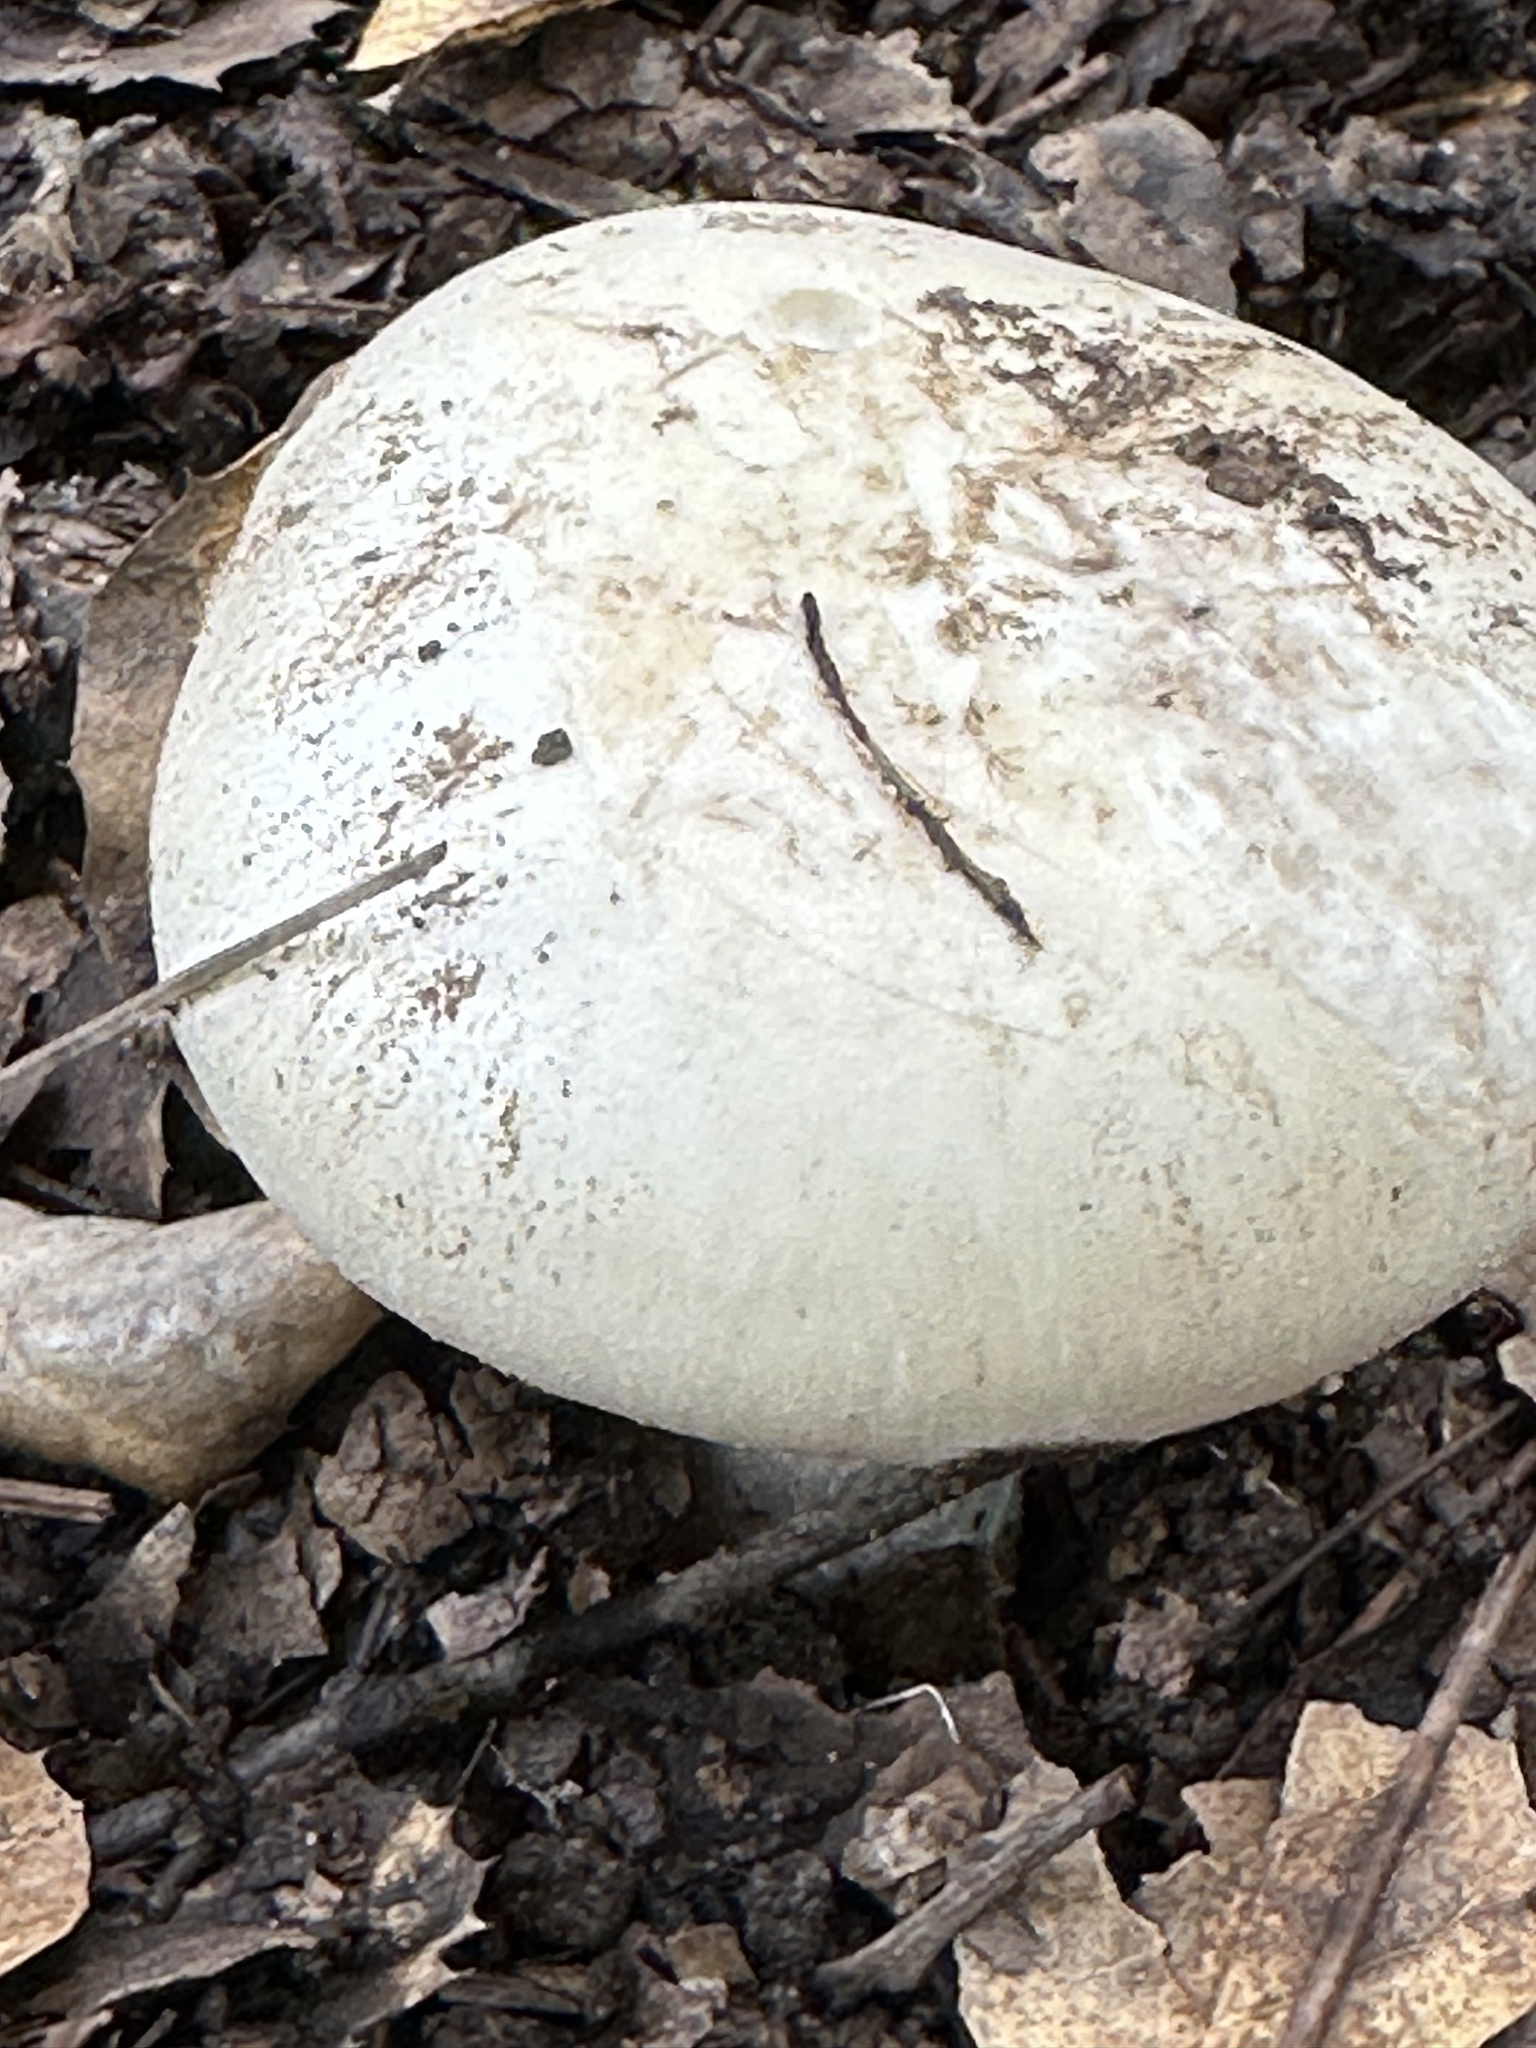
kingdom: Fungi
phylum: Basidiomycota
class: Agaricomycetes
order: Agaricales
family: Amanitaceae
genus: Amanita
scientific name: Amanita ocreata
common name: Western destroying angel
